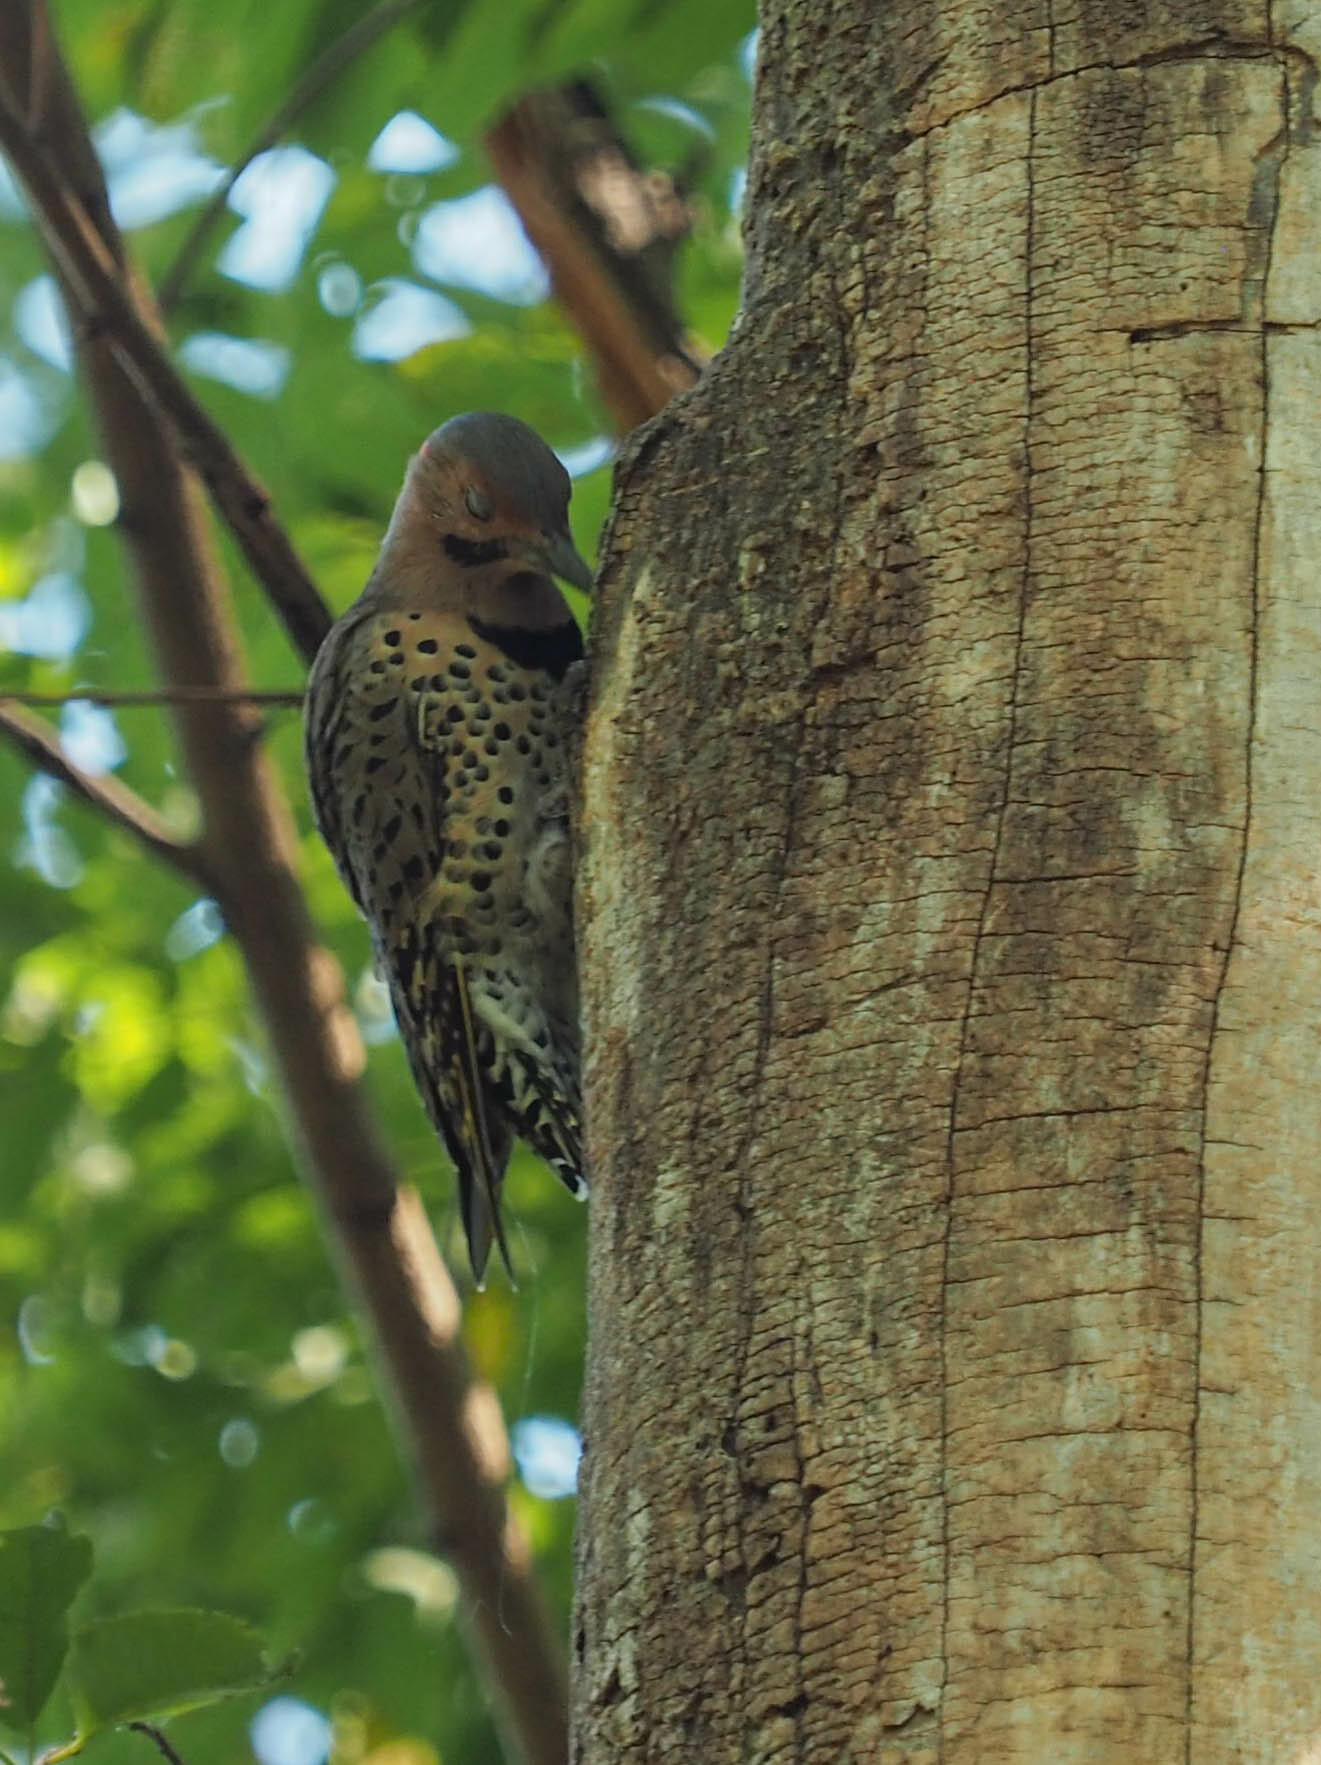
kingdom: Animalia
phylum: Chordata
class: Aves
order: Piciformes
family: Picidae
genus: Colaptes
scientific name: Colaptes auratus
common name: Northern flicker
